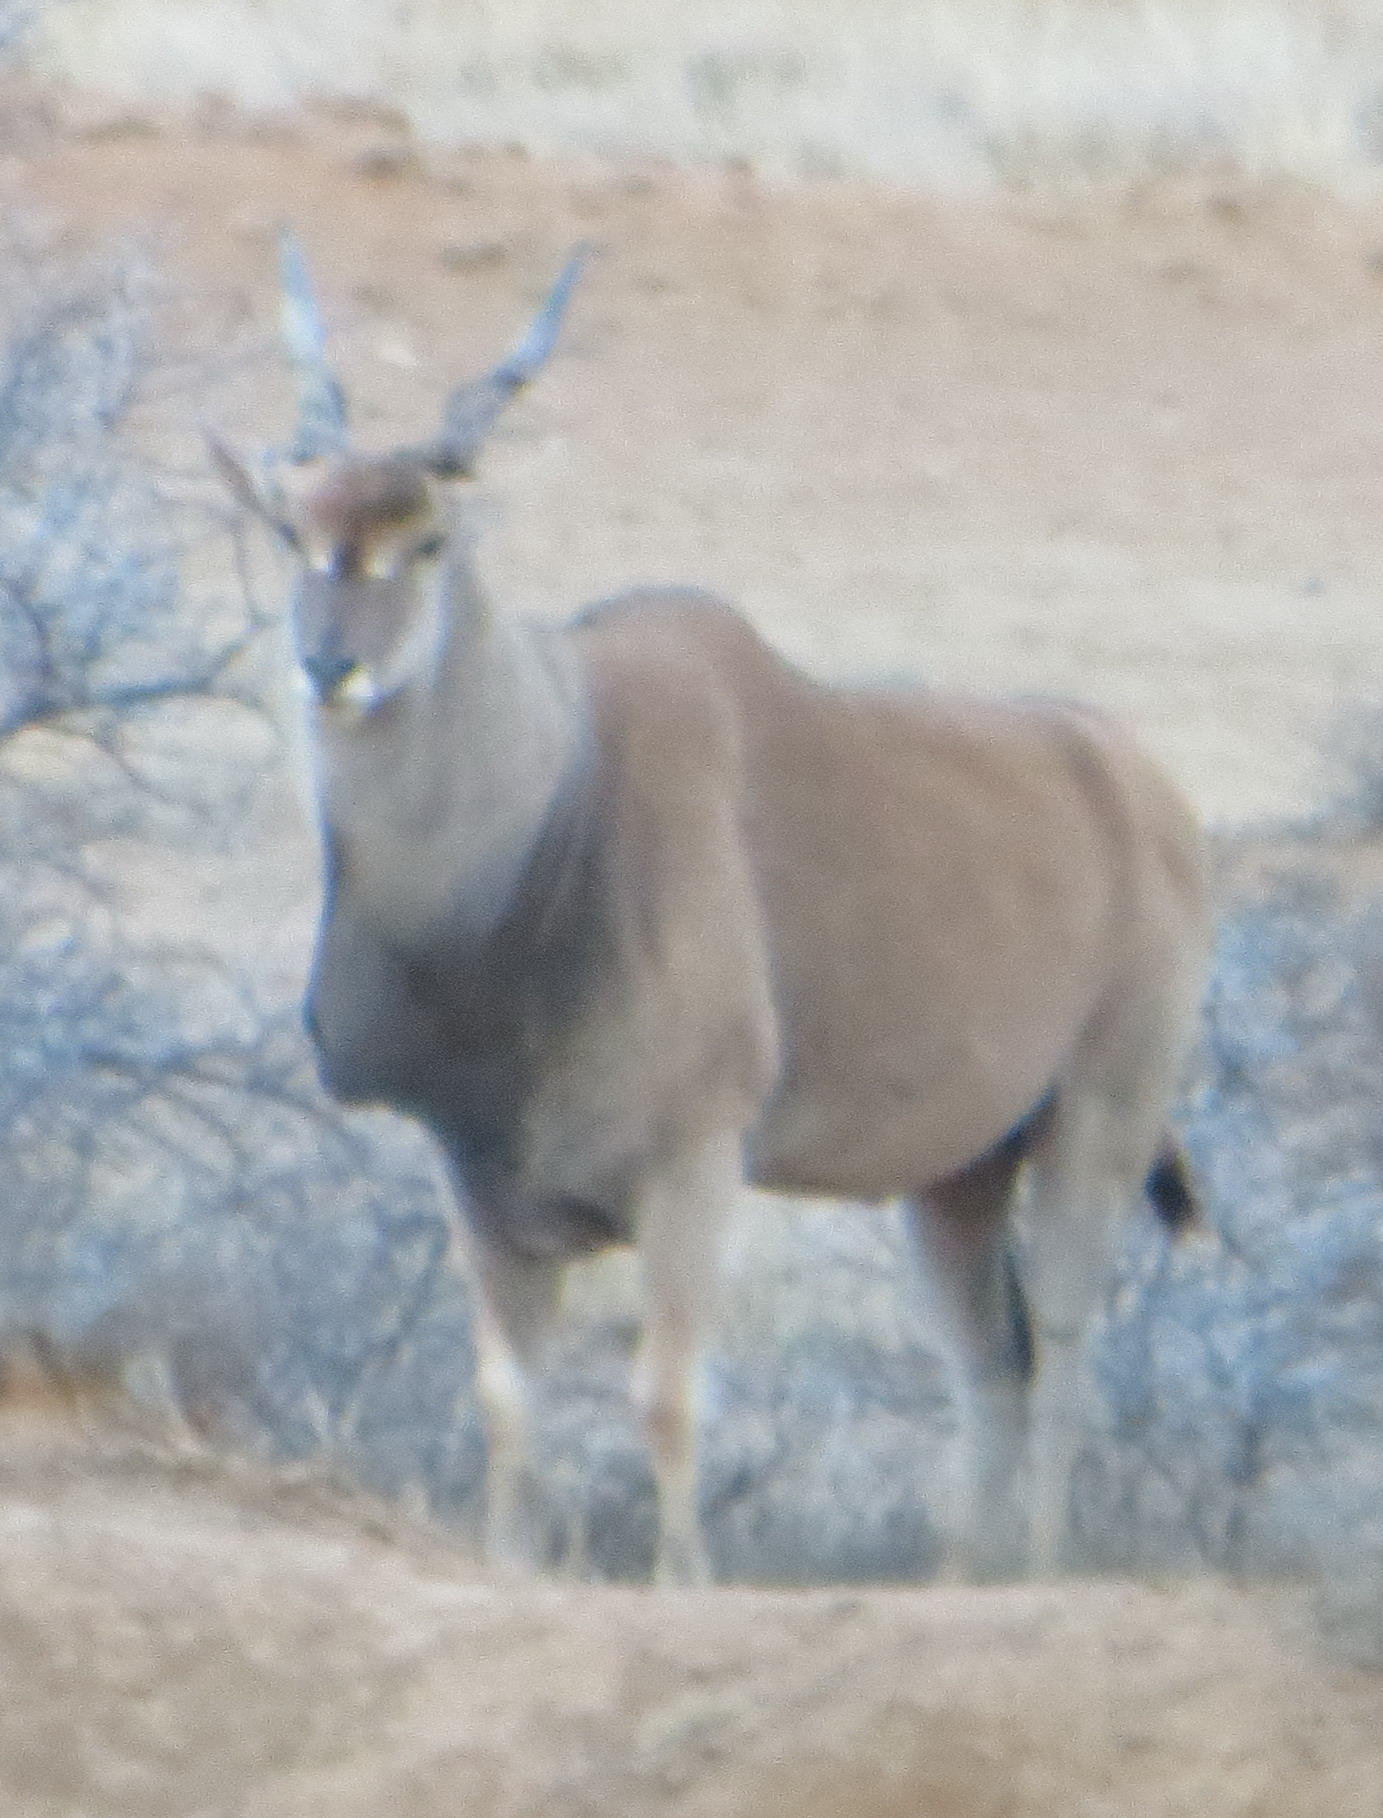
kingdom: Animalia
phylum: Chordata
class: Mammalia
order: Artiodactyla
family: Bovidae
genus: Taurotragus
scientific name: Taurotragus oryx
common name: Common eland
